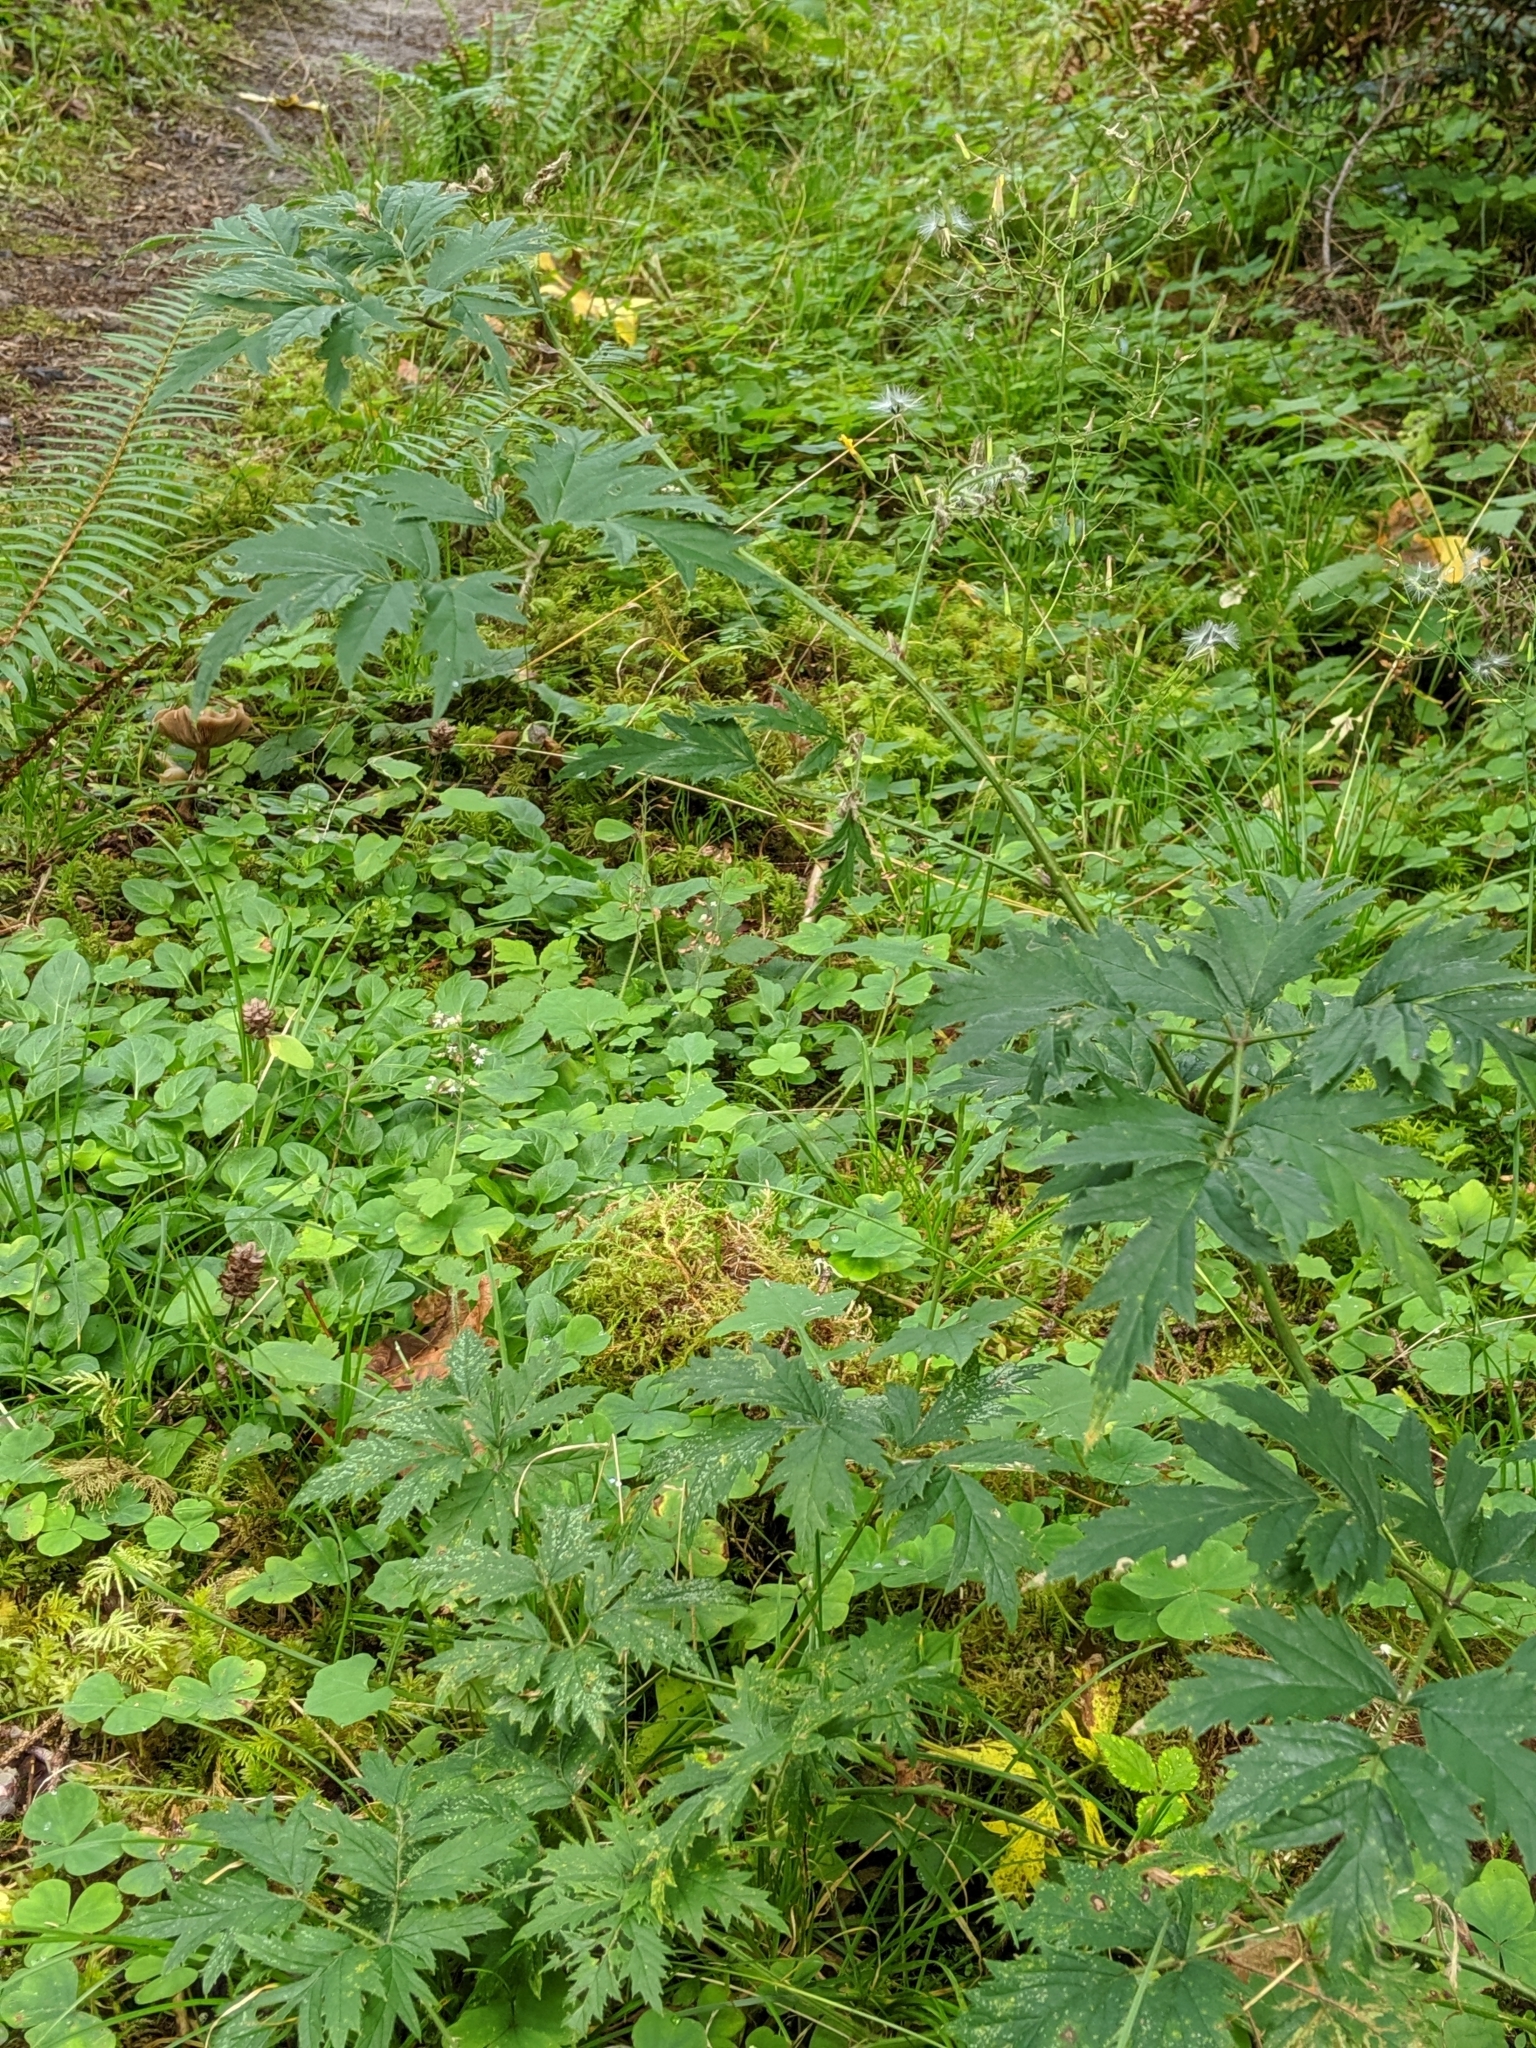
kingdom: Plantae
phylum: Tracheophyta
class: Magnoliopsida
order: Rosales
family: Rosaceae
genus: Rubus
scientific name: Rubus laciniatus
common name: Evergreen blackberry
